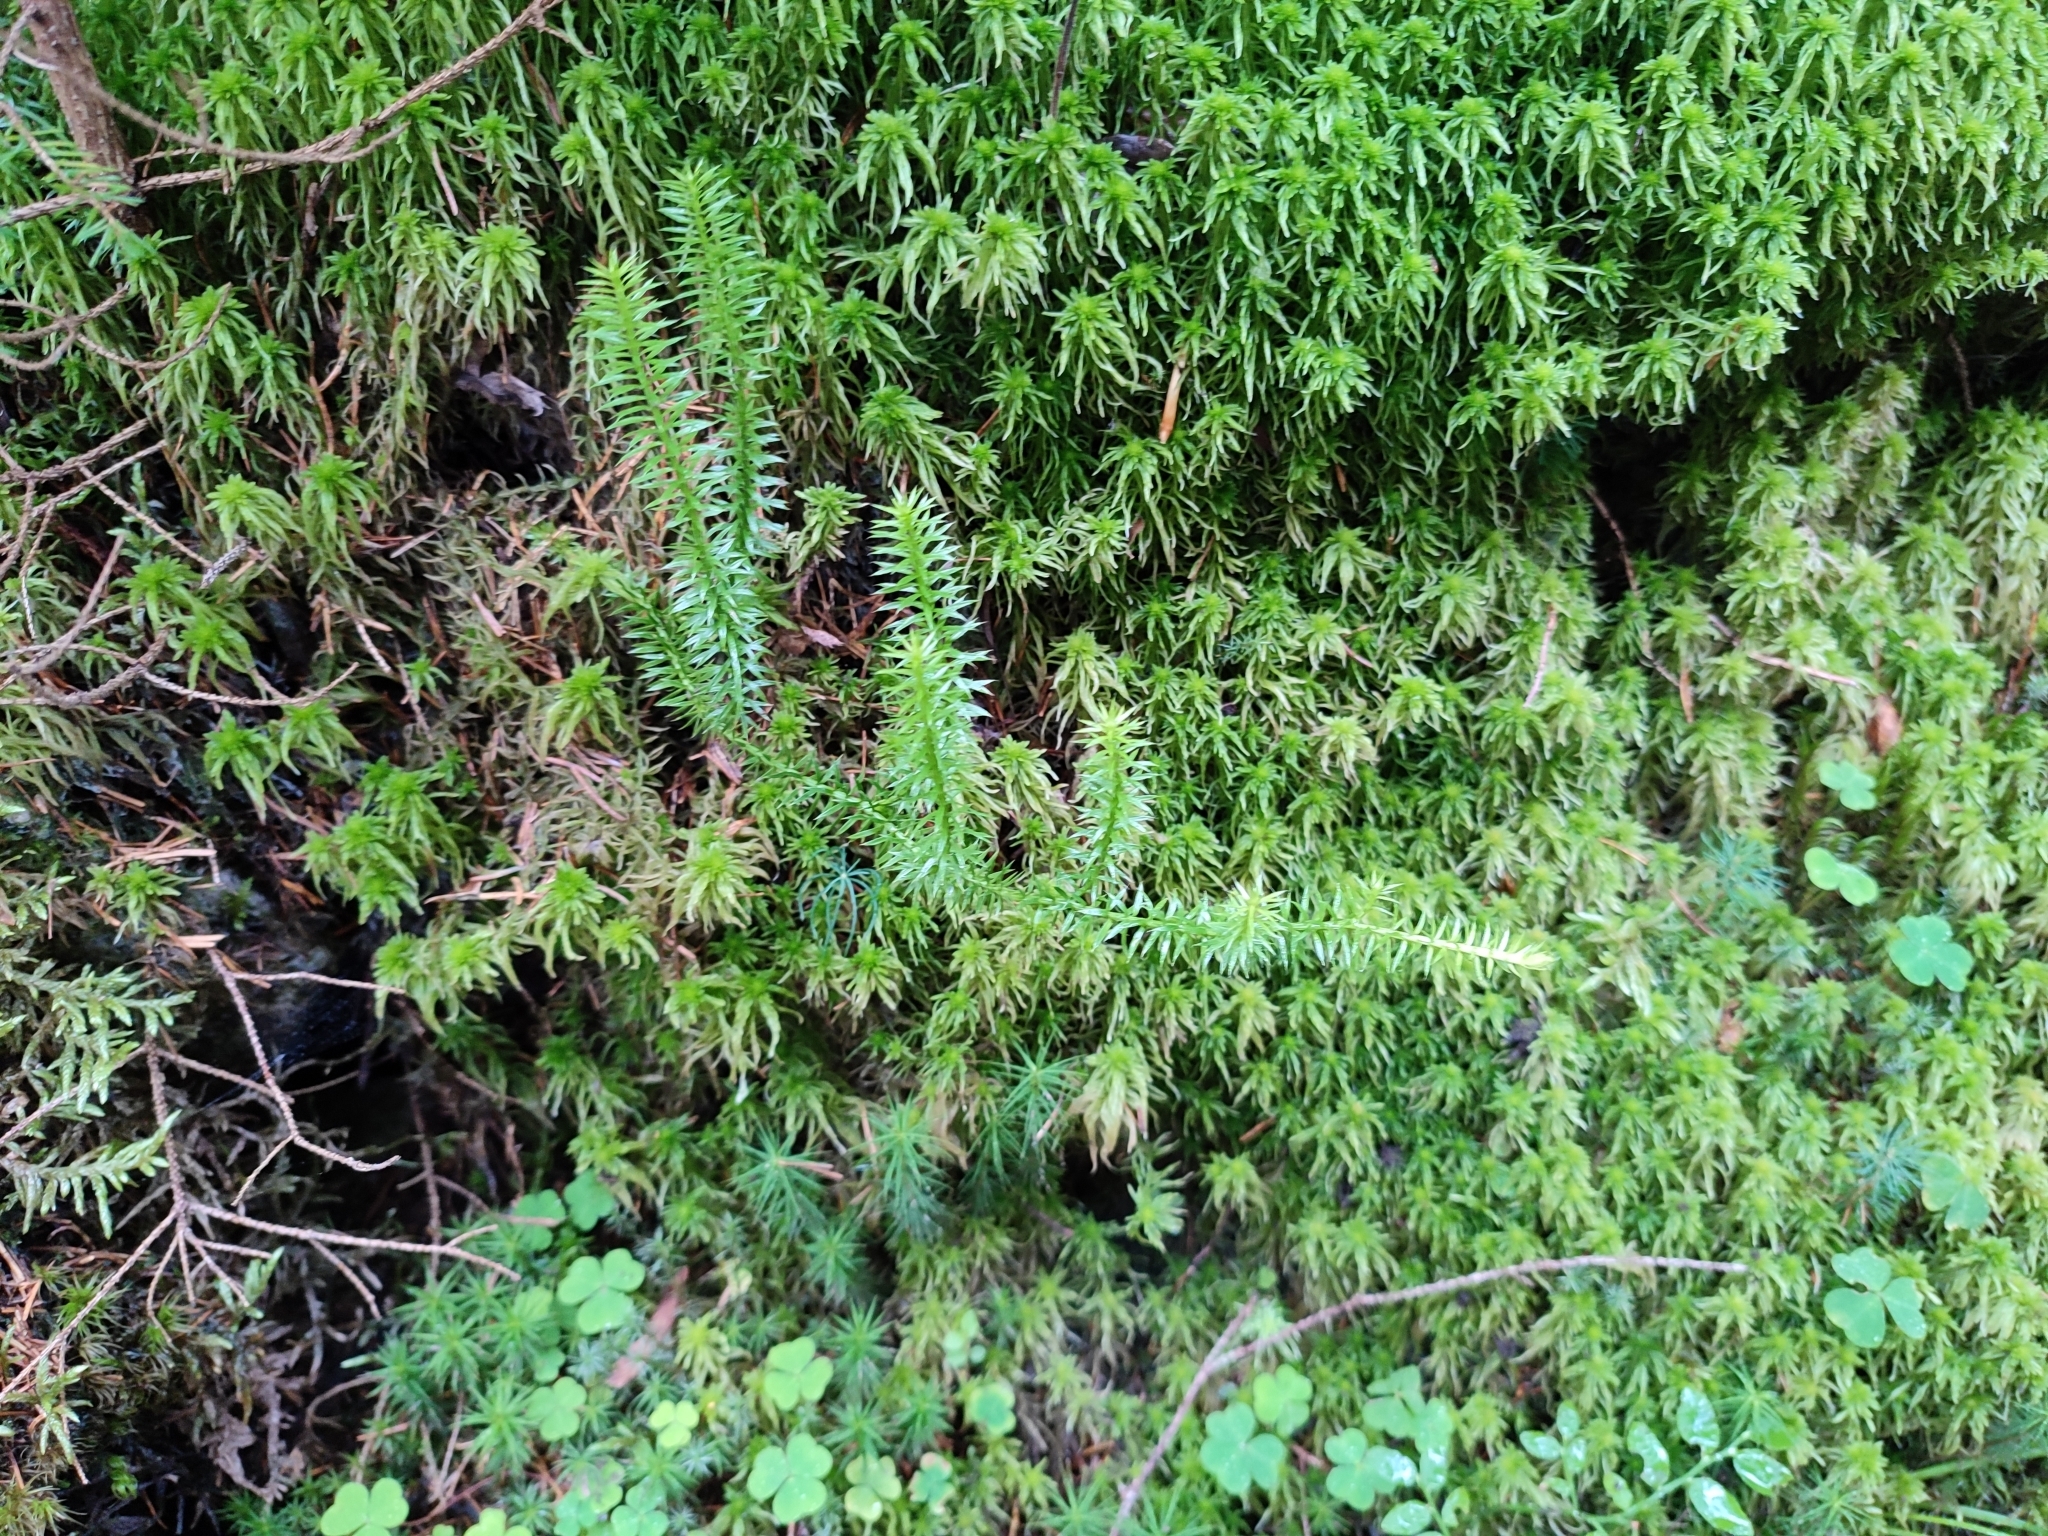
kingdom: Plantae
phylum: Tracheophyta
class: Lycopodiopsida
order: Lycopodiales
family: Lycopodiaceae
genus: Spinulum
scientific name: Spinulum annotinum
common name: Interrupted club-moss
